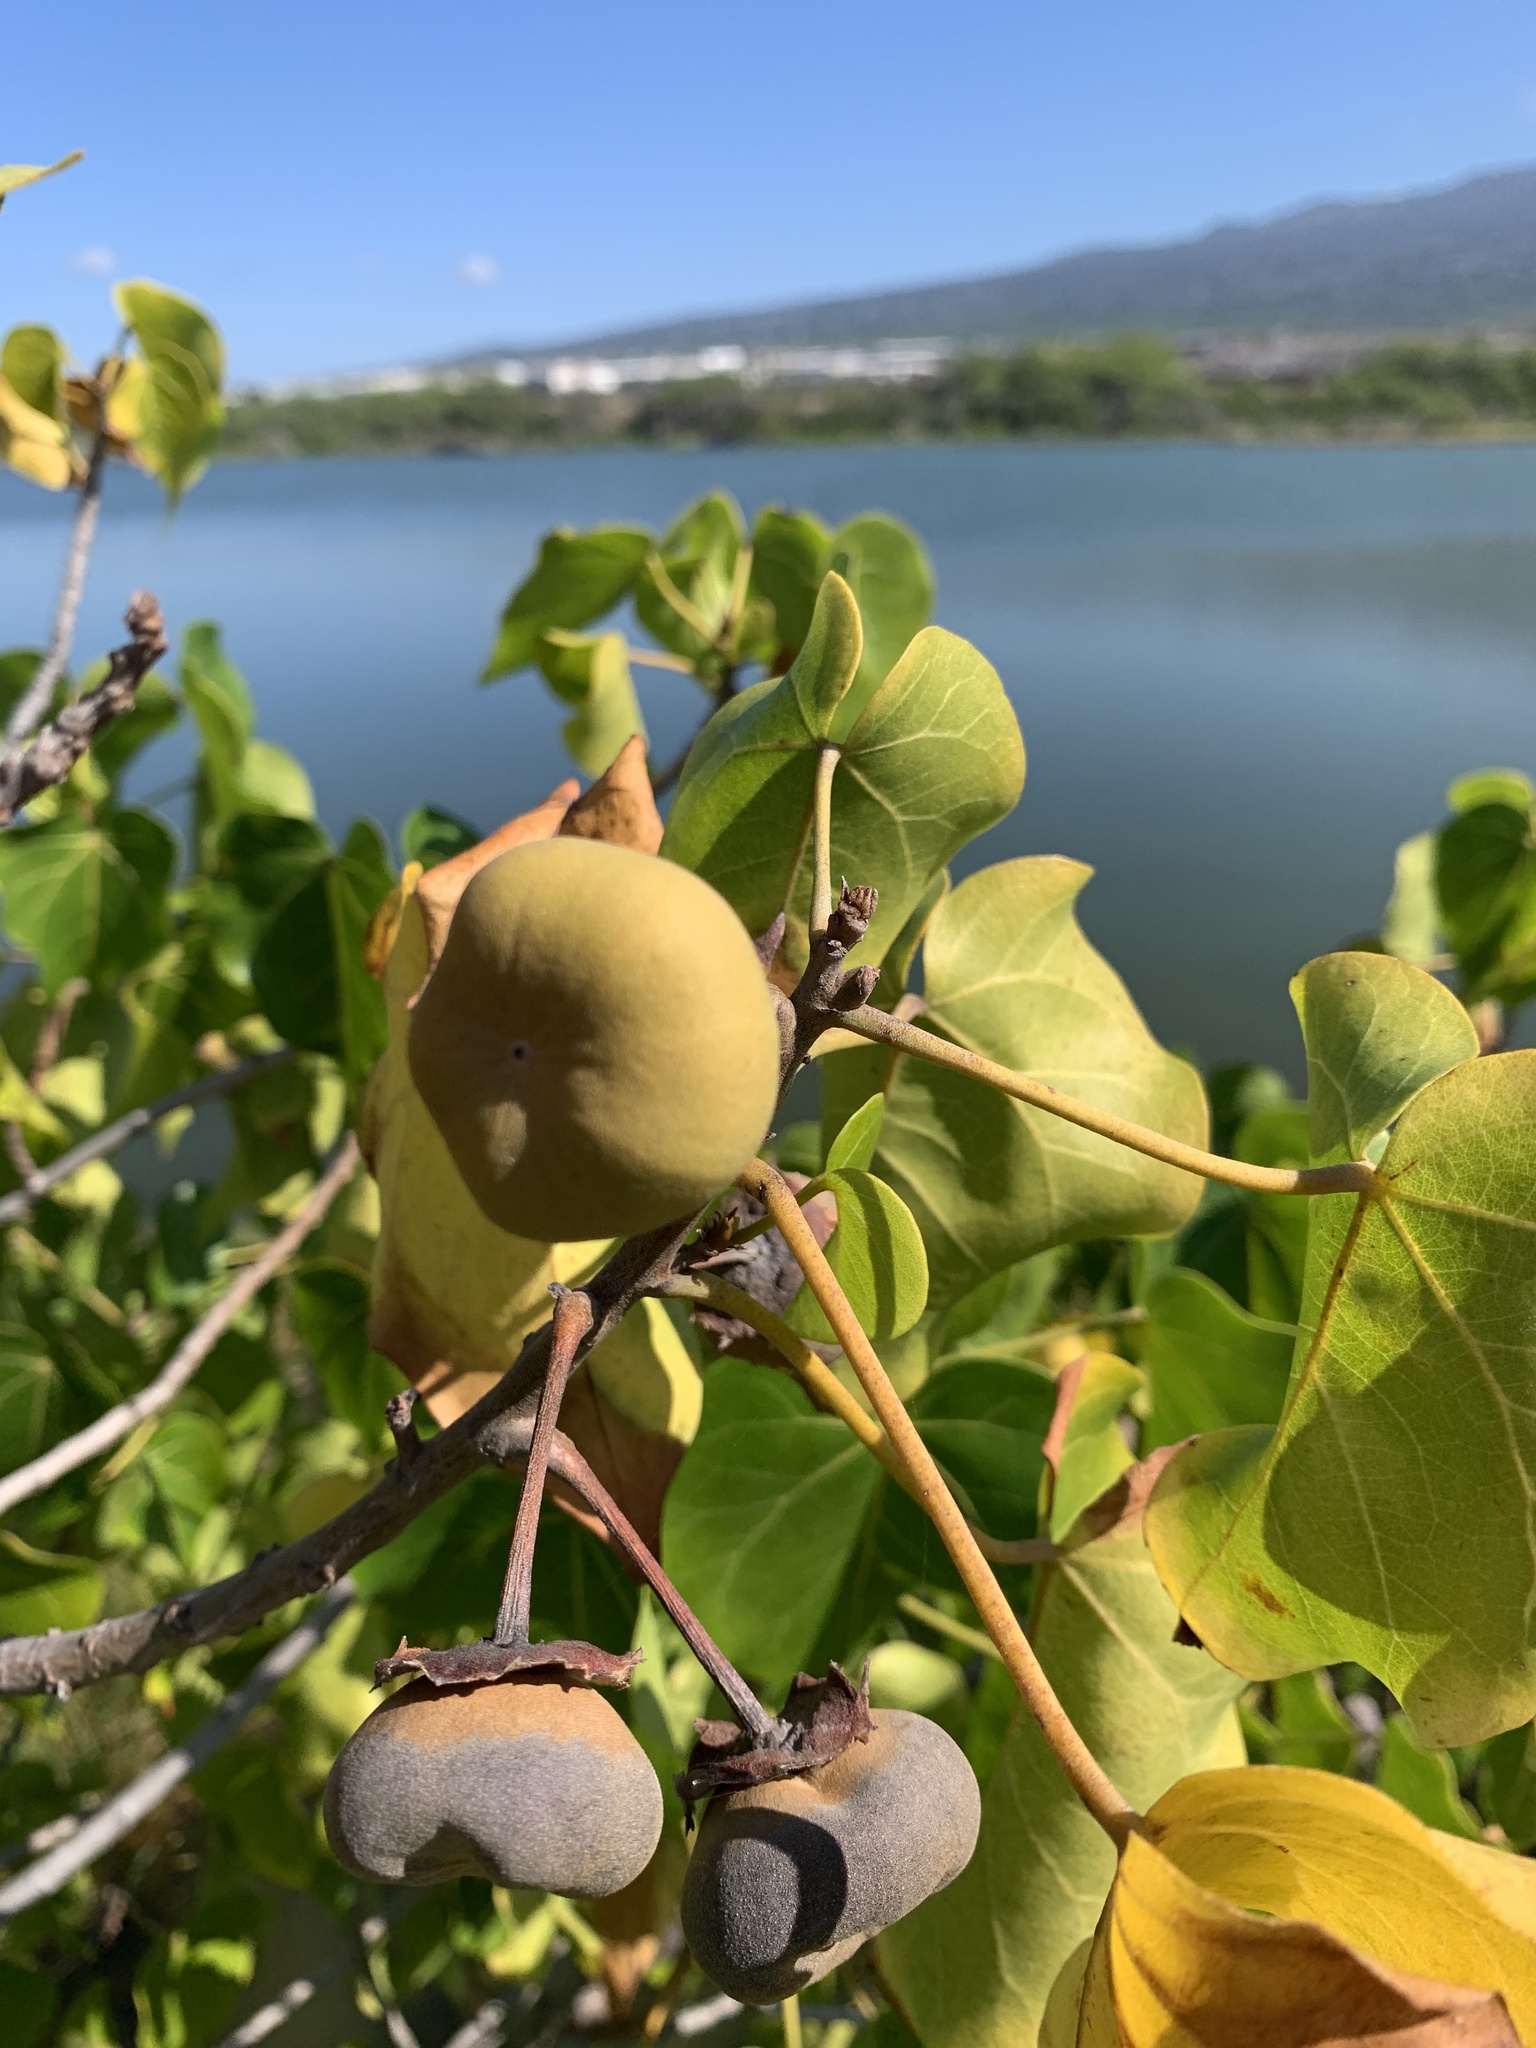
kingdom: Plantae
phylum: Tracheophyta
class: Magnoliopsida
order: Malvales
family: Malvaceae
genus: Thespesia
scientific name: Thespesia populnea
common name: Seaside mahoe
